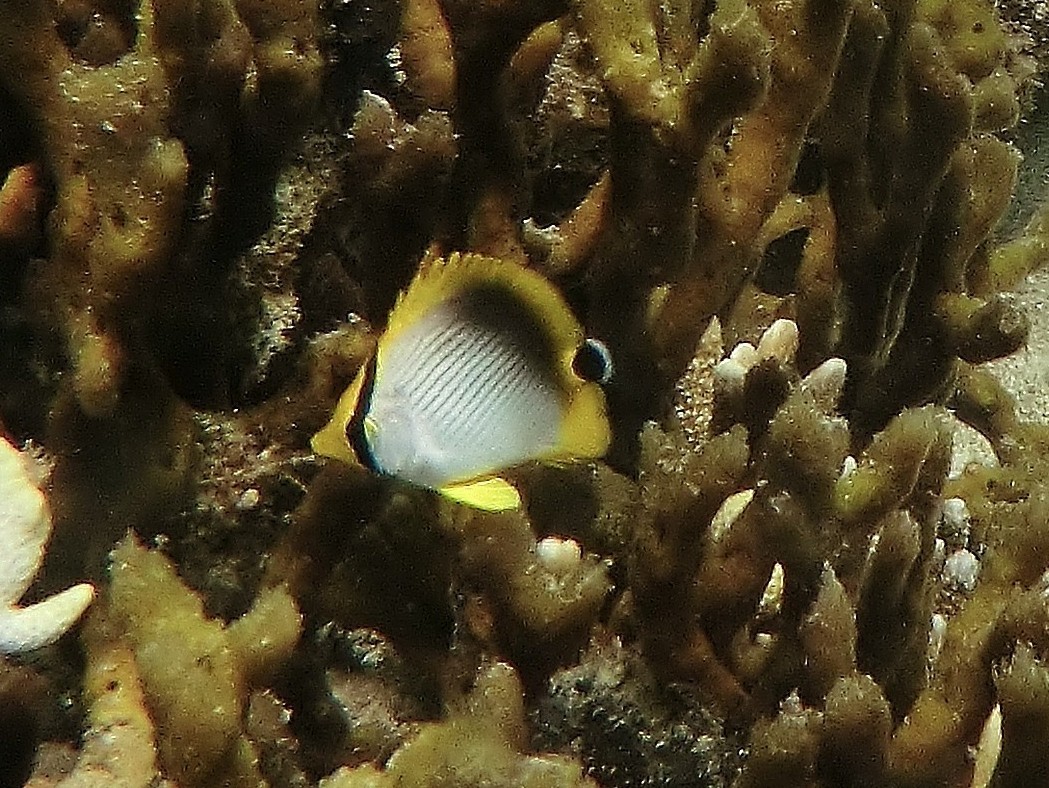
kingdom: Animalia
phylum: Chordata
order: Perciformes
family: Chaetodontidae
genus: Chaetodon
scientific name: Chaetodon melannotus
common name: Blackback butterflyfish
